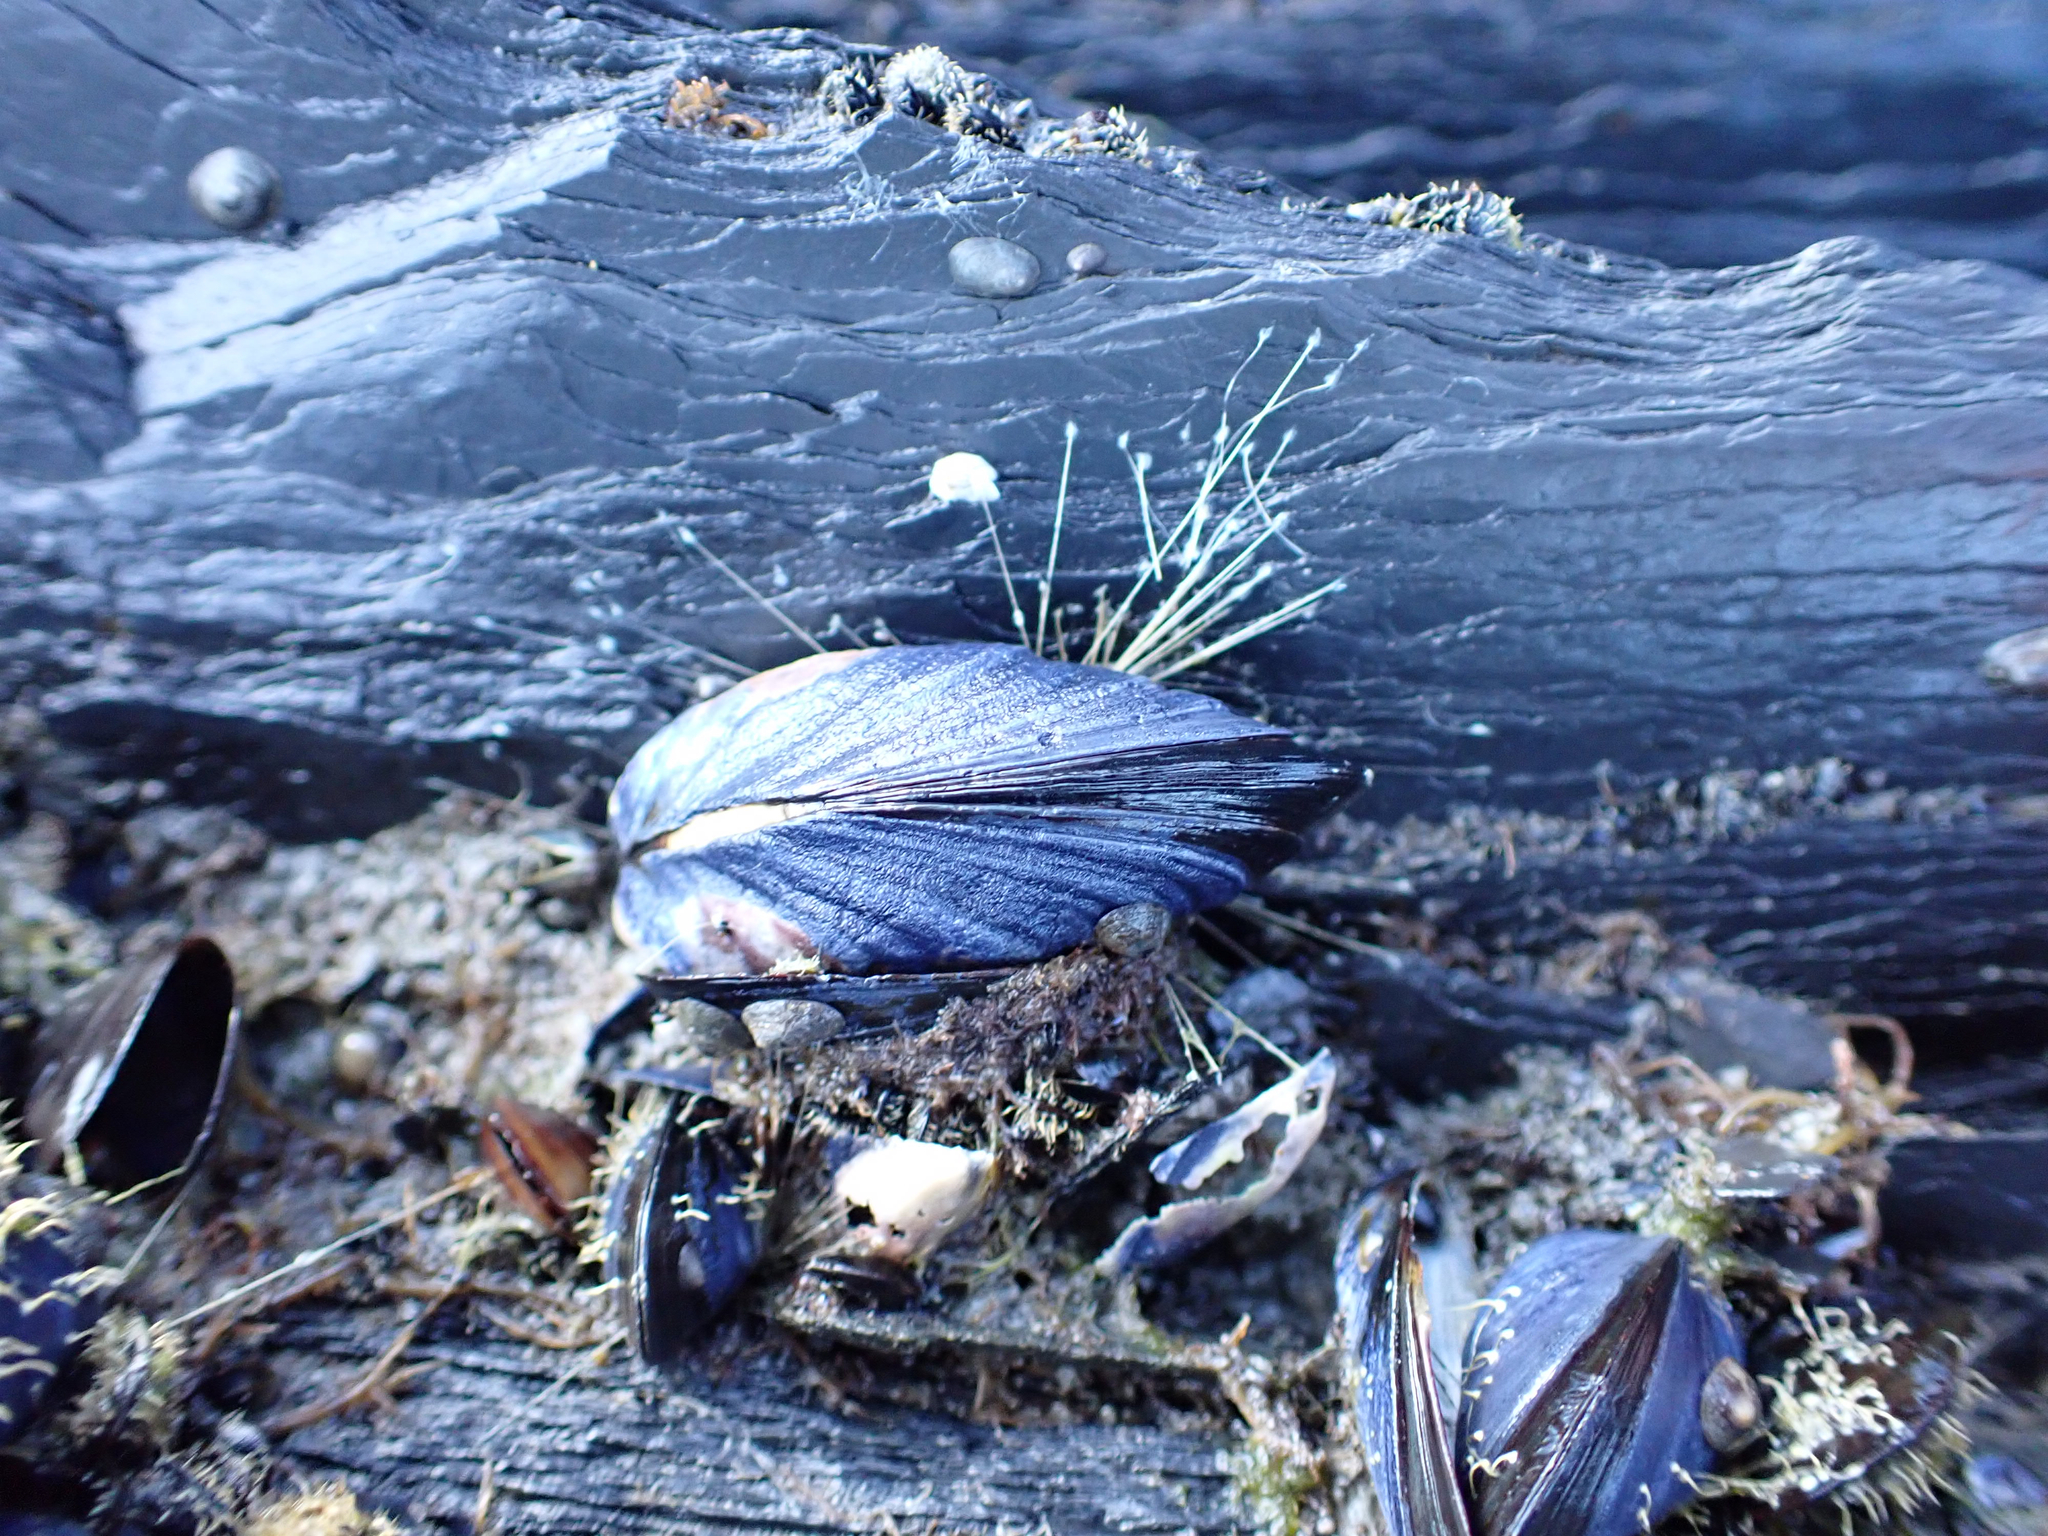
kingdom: Animalia
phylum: Mollusca
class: Bivalvia
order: Mytilida
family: Mytilidae
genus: Mytilus
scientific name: Mytilus trossulus
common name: Northern blue mussel
